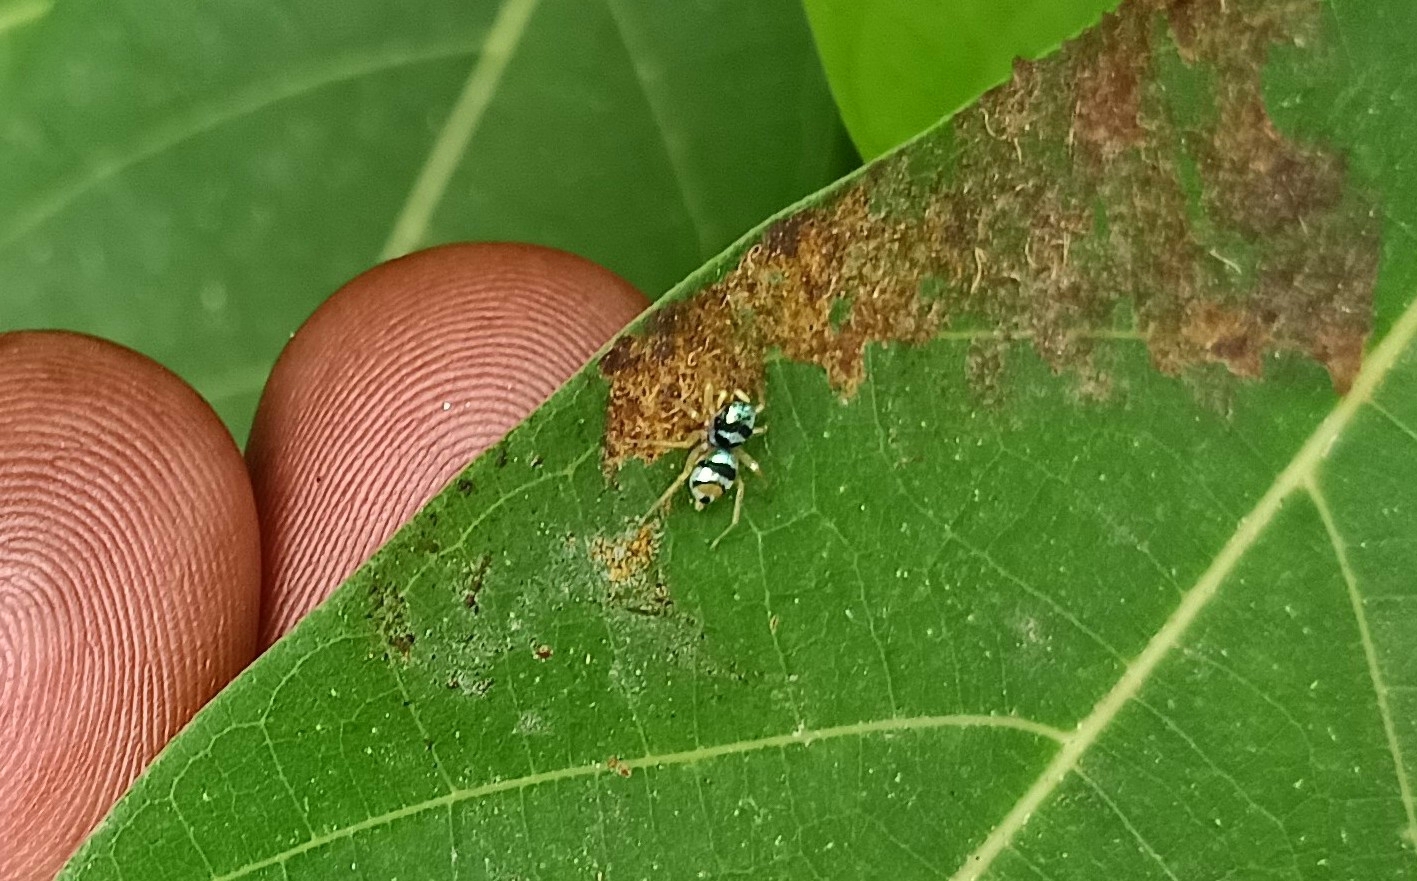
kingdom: Animalia
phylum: Arthropoda
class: Arachnida
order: Araneae
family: Salticidae
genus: Phintella
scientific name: Phintella vittata
